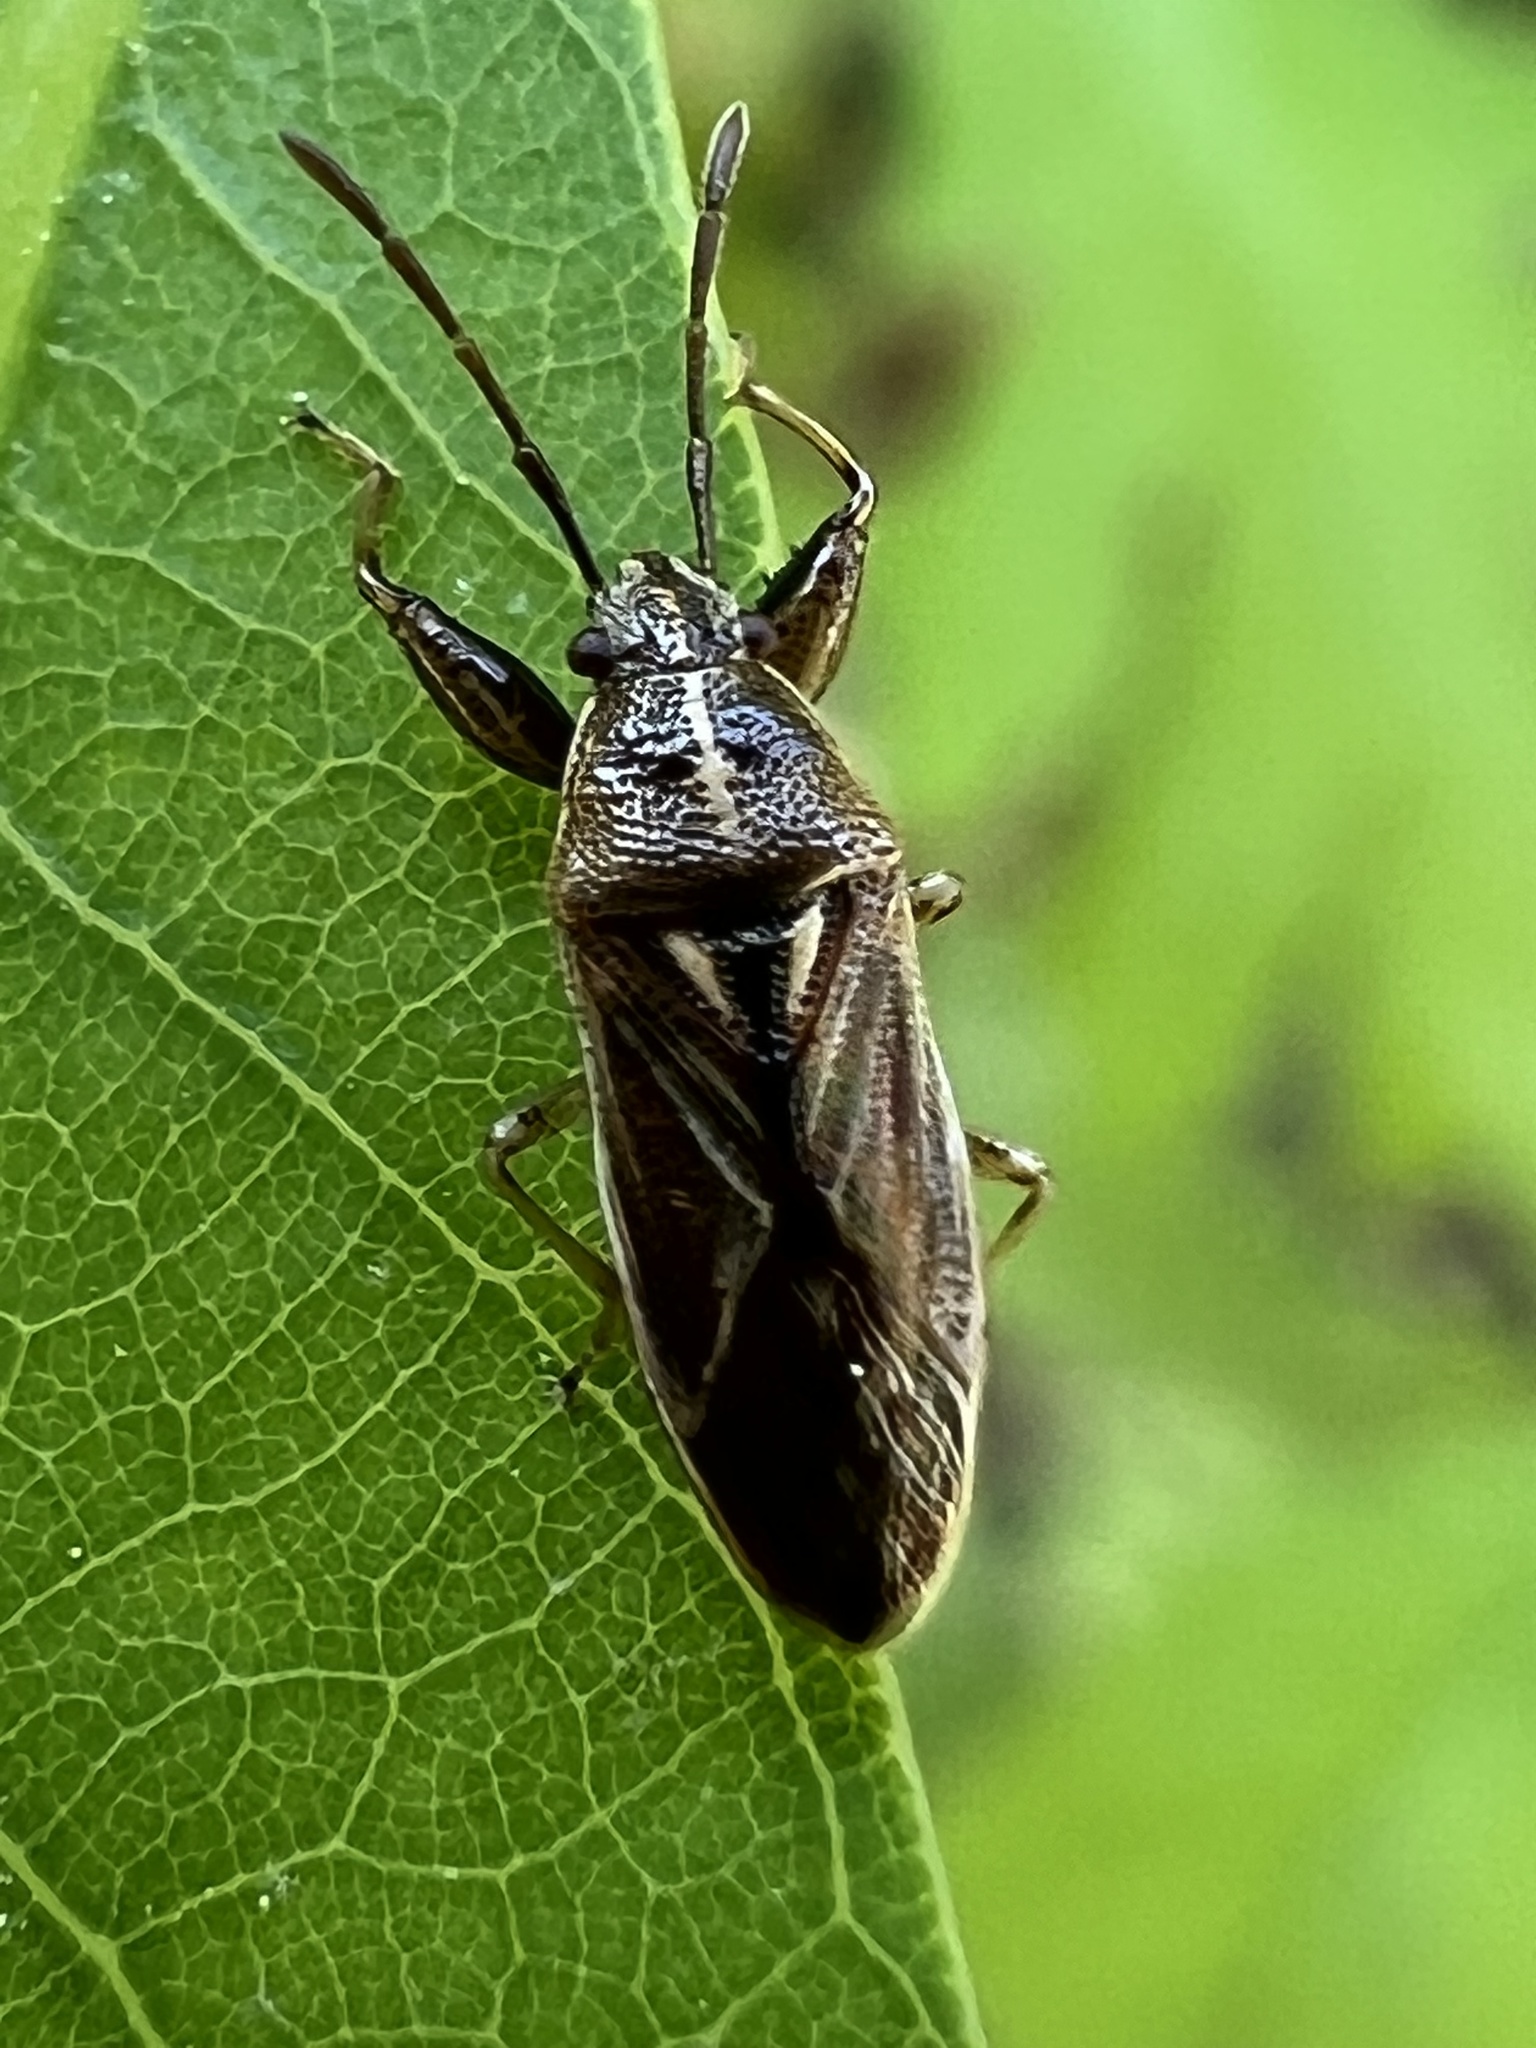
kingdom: Animalia
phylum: Arthropoda
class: Insecta
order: Hemiptera
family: Pachygronthidae
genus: Oedancala
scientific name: Oedancala dorsalis
